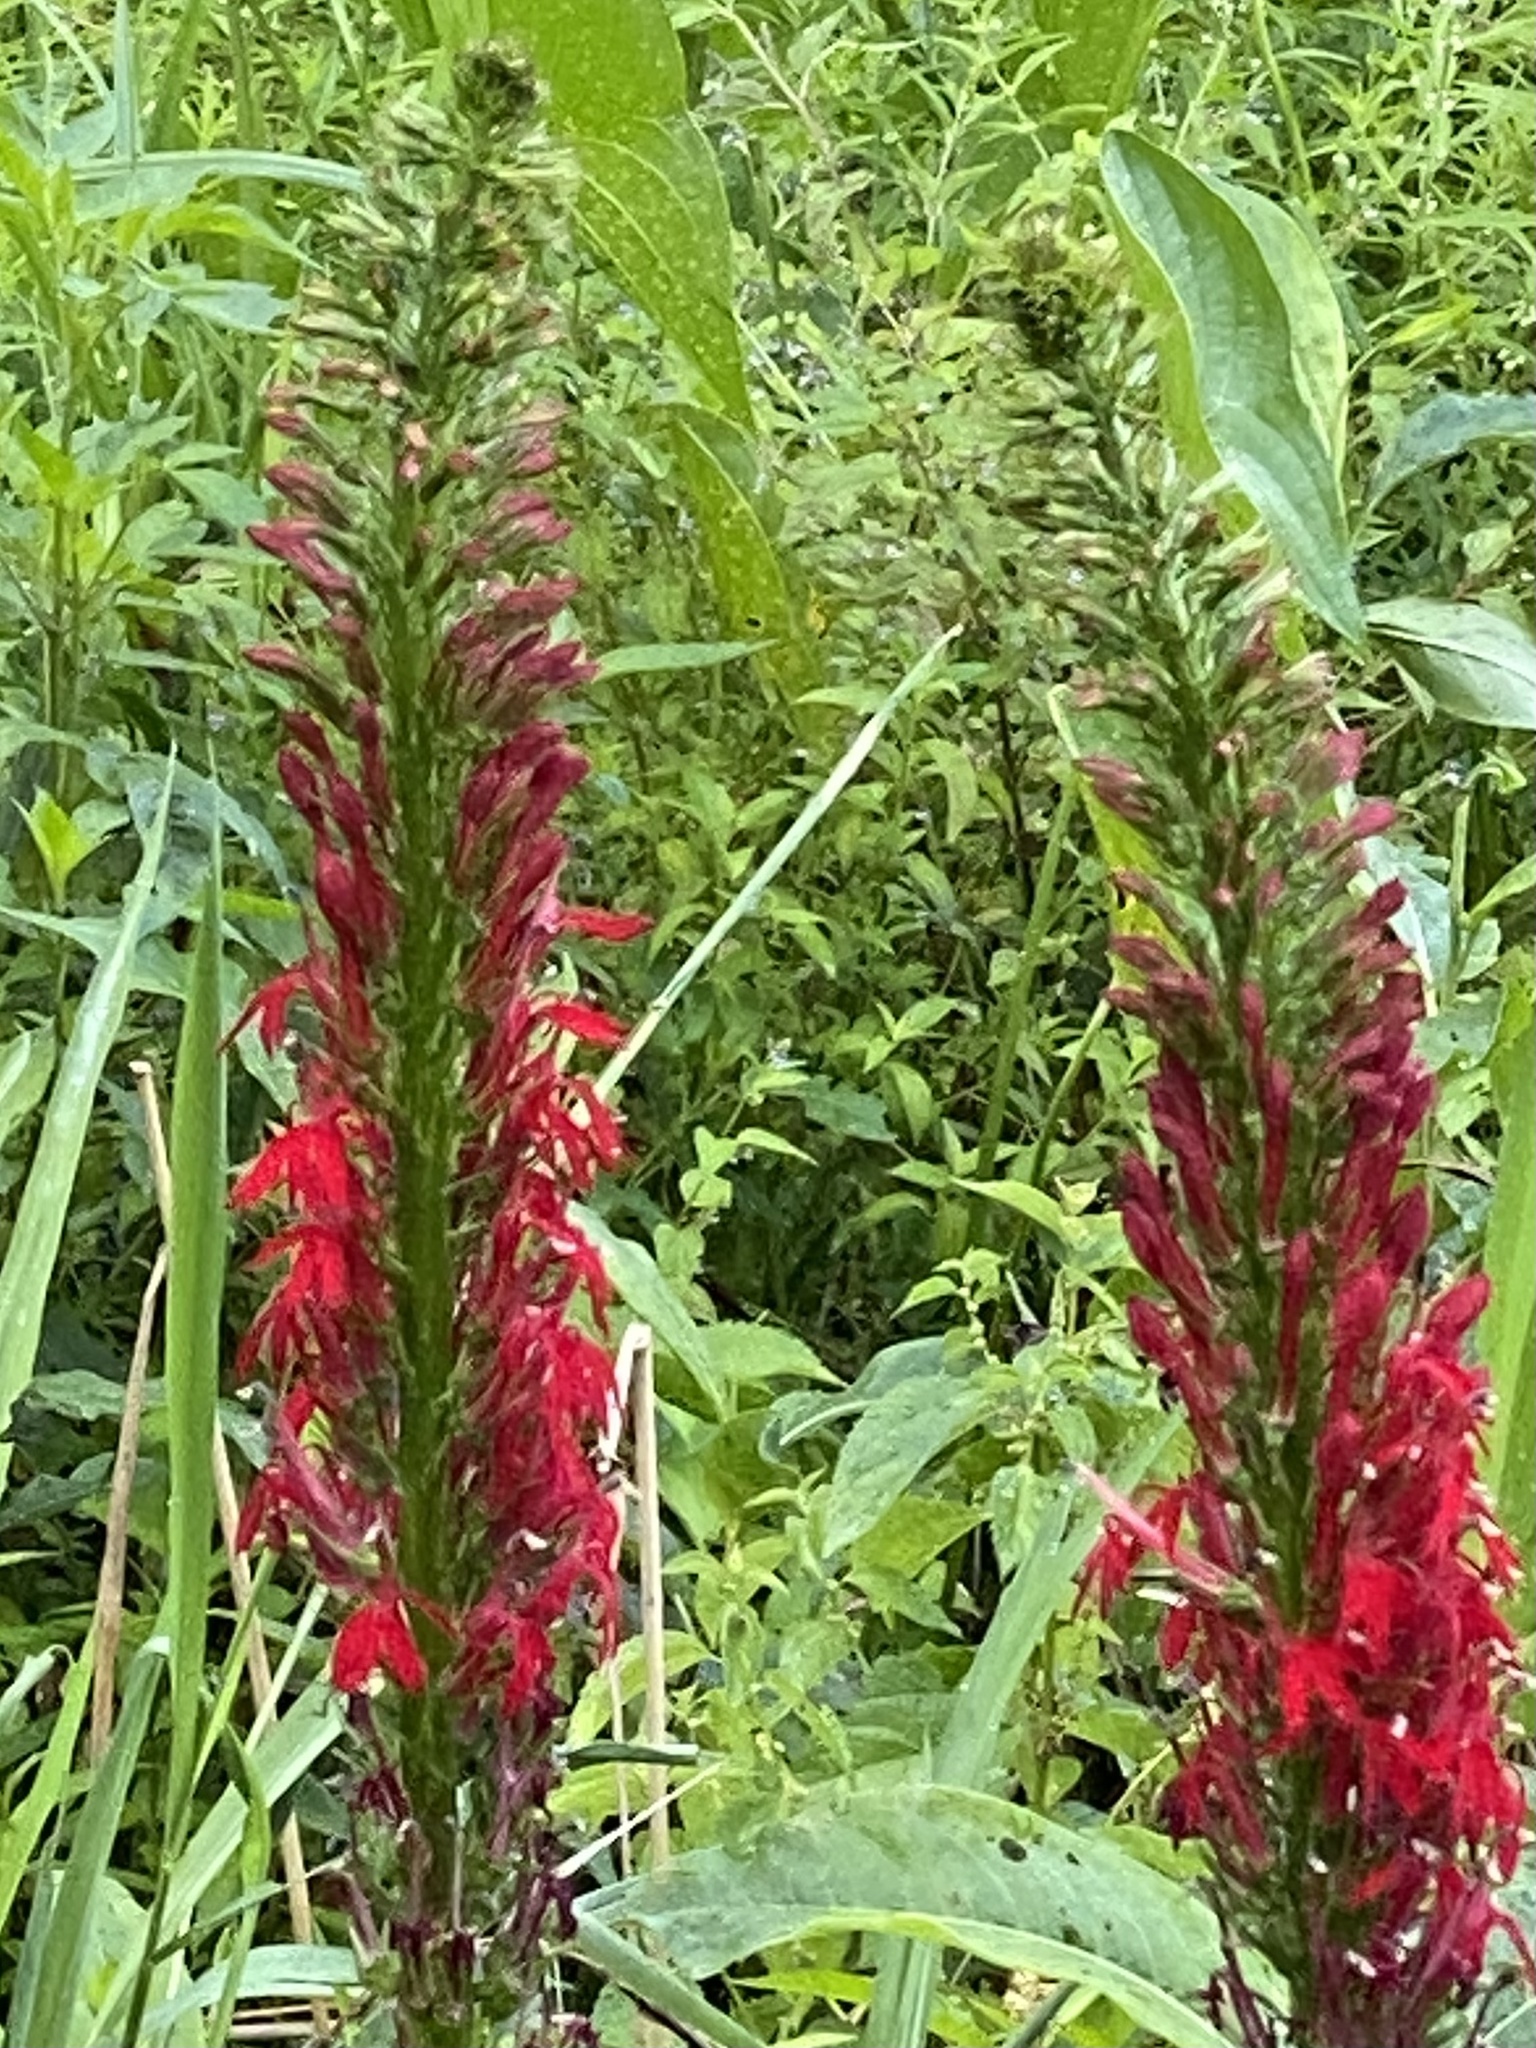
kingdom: Plantae
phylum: Tracheophyta
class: Magnoliopsida
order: Asterales
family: Campanulaceae
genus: Lobelia
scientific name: Lobelia cardinalis
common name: Cardinal flower
